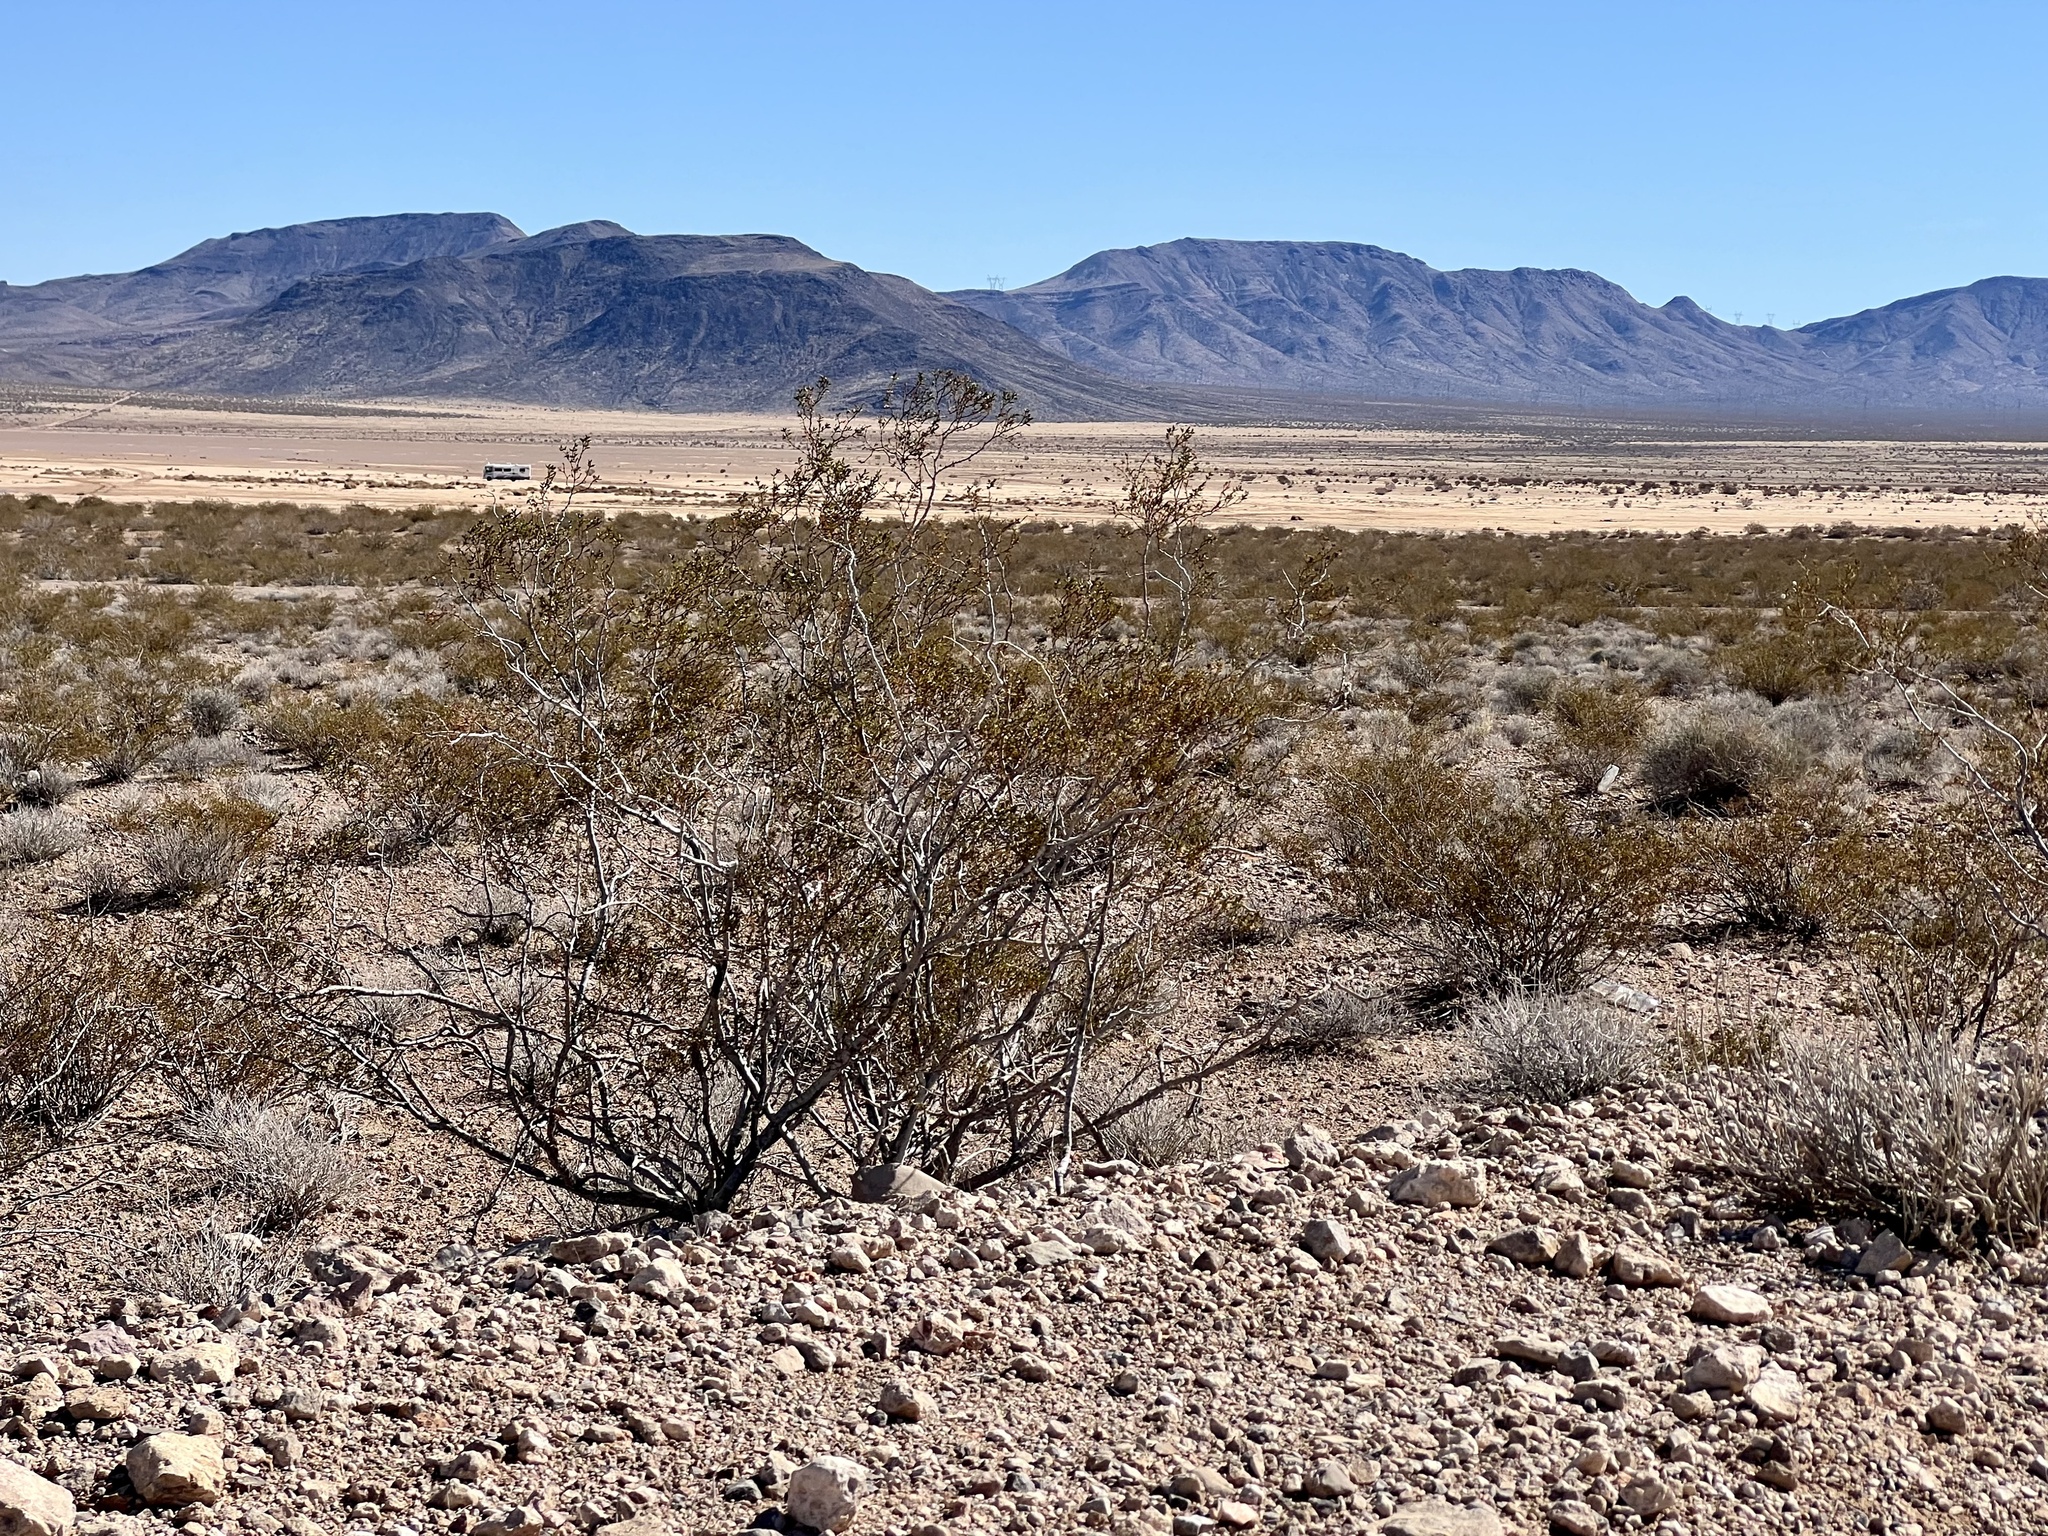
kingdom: Plantae
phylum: Tracheophyta
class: Magnoliopsida
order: Zygophyllales
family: Zygophyllaceae
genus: Larrea
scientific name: Larrea tridentata
